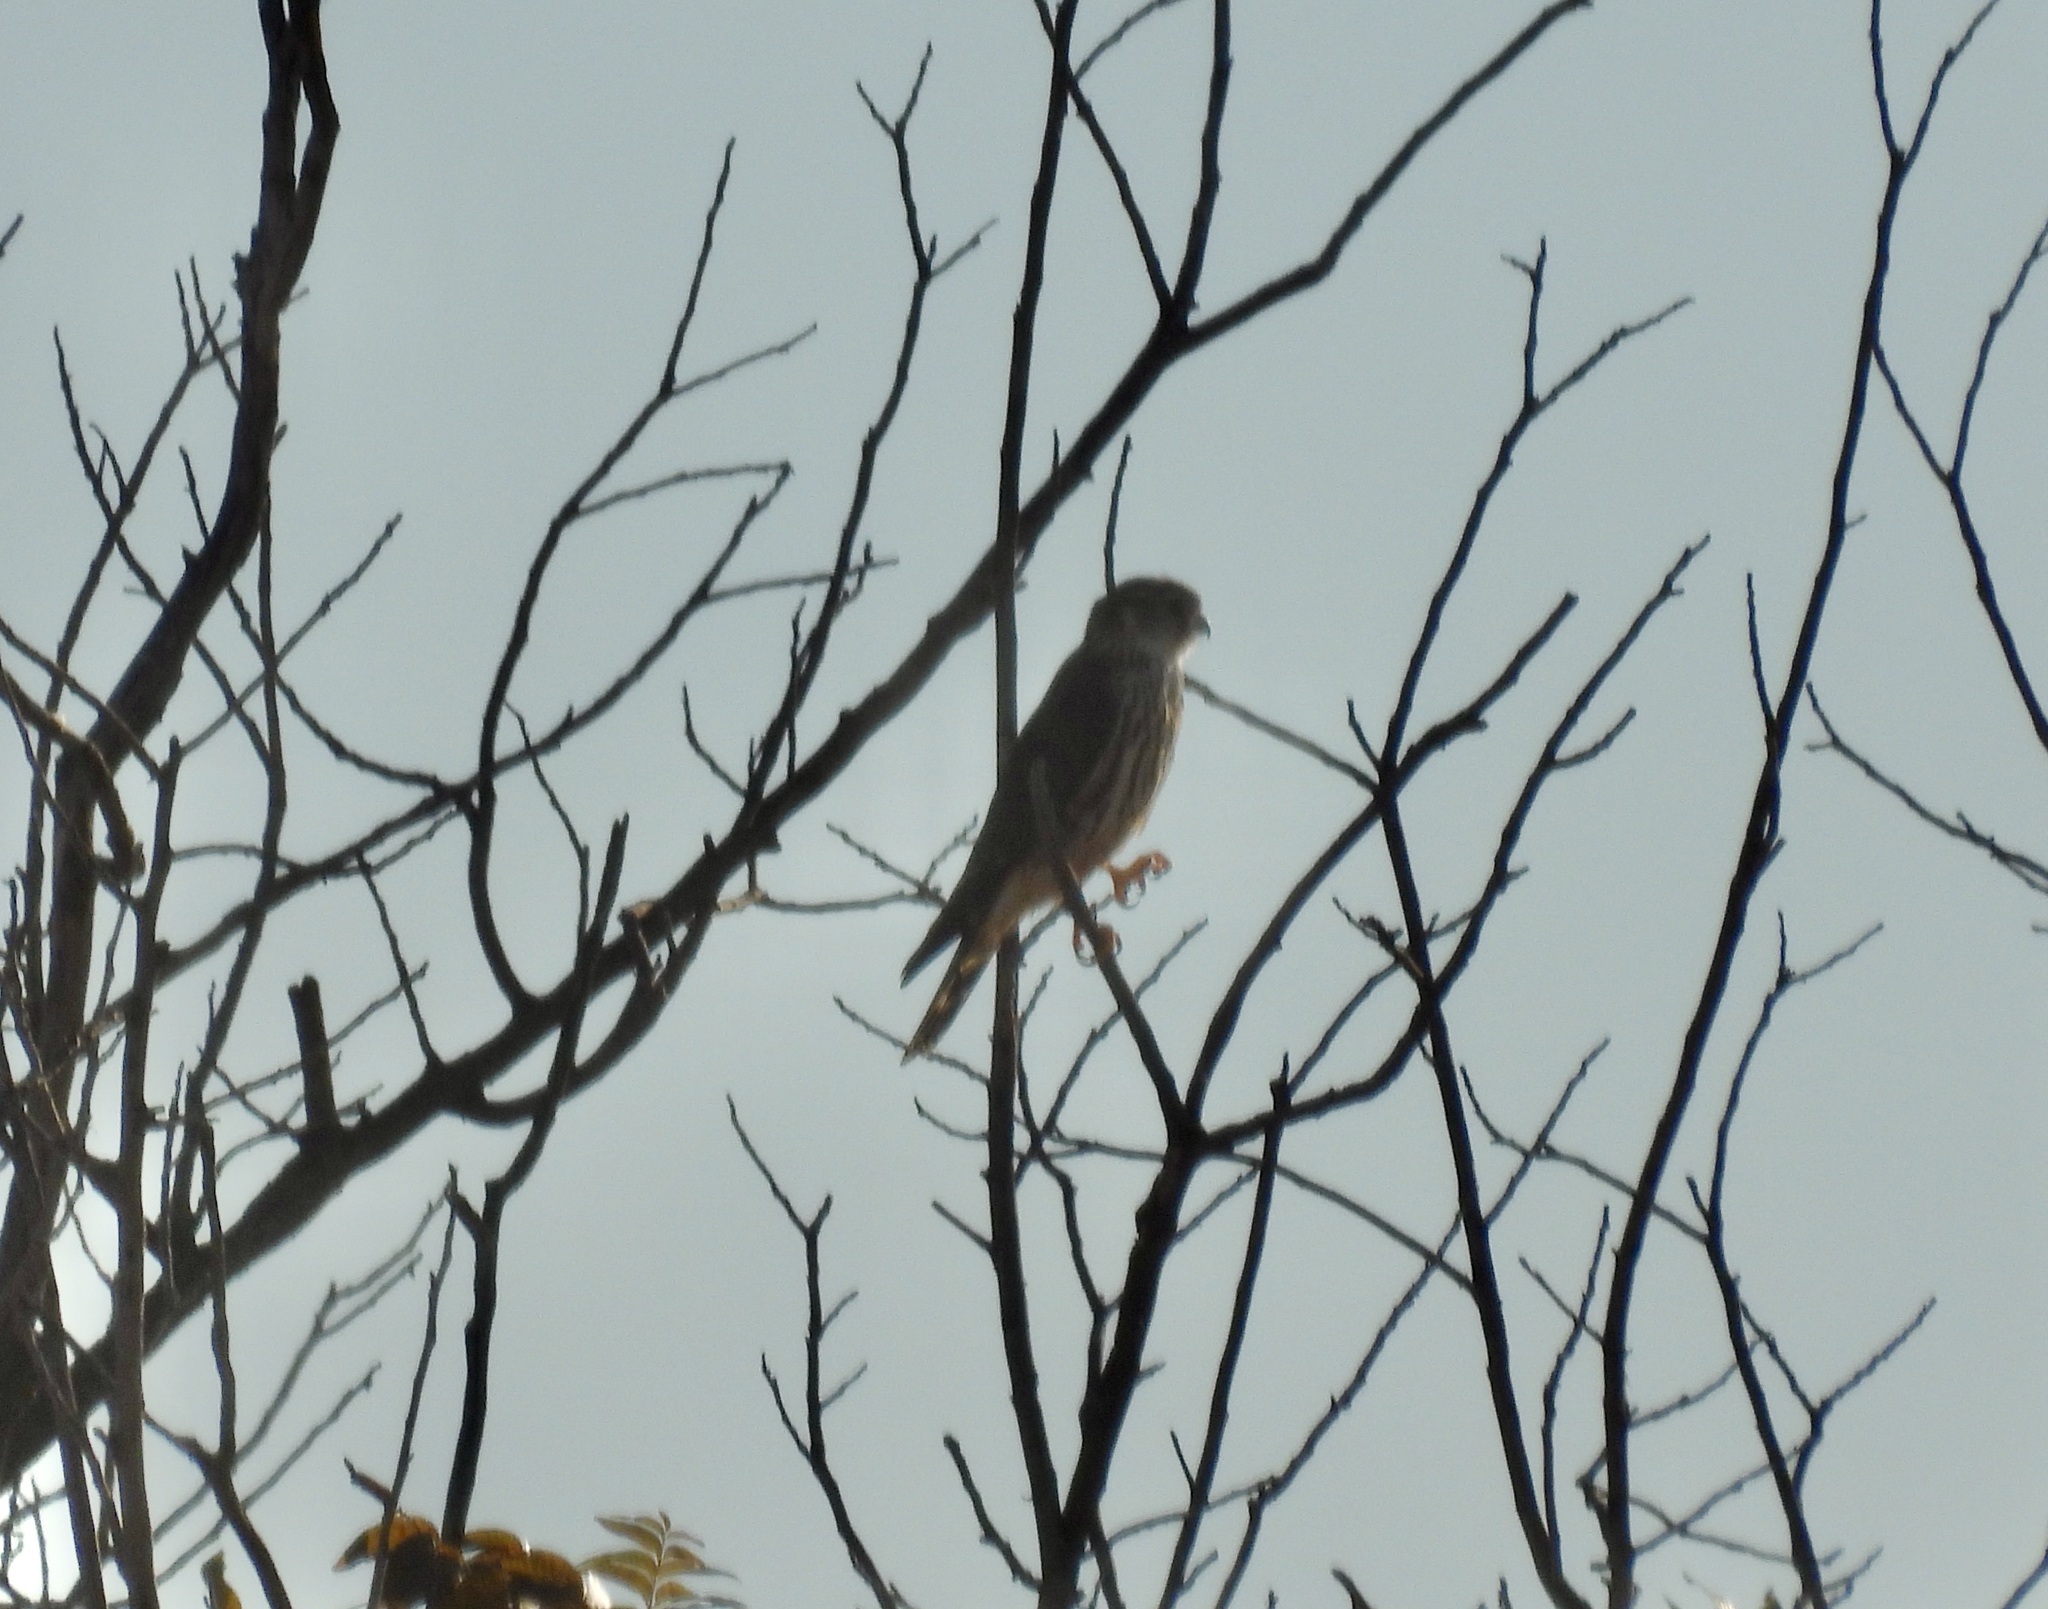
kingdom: Animalia
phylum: Chordata
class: Aves
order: Falconiformes
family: Falconidae
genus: Falco
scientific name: Falco columbarius
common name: Merlin
